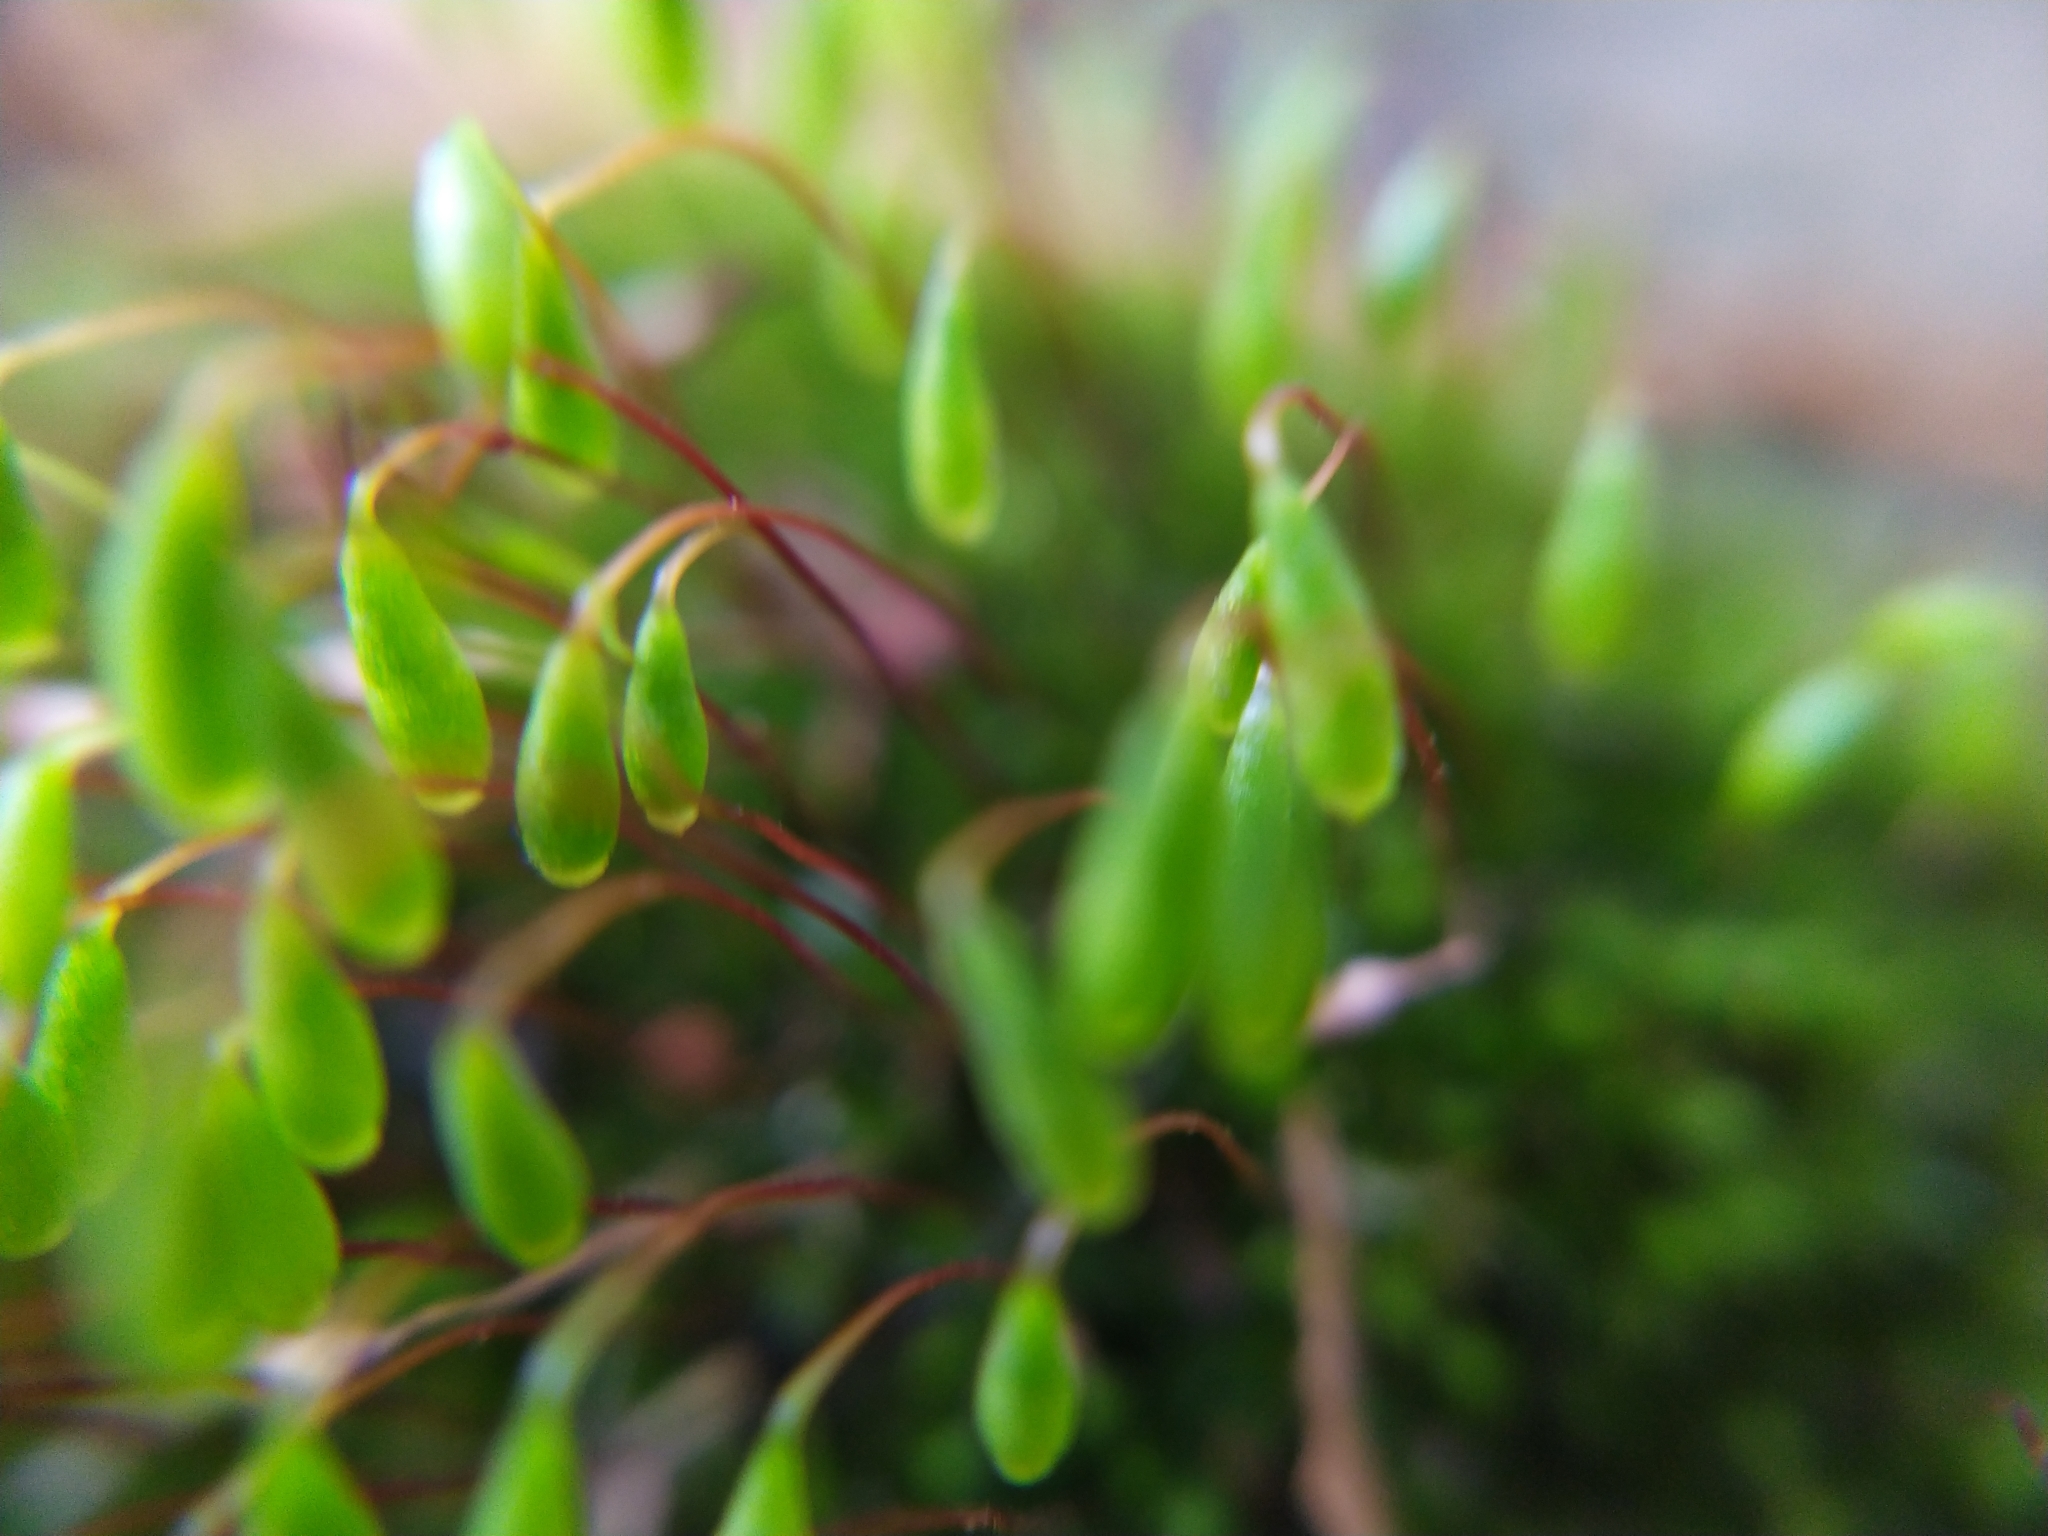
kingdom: Plantae
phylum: Bryophyta
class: Bryopsida
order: Bryales
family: Bryaceae
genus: Rosulabryum
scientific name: Rosulabryum capillare
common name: Capillary thread-moss
